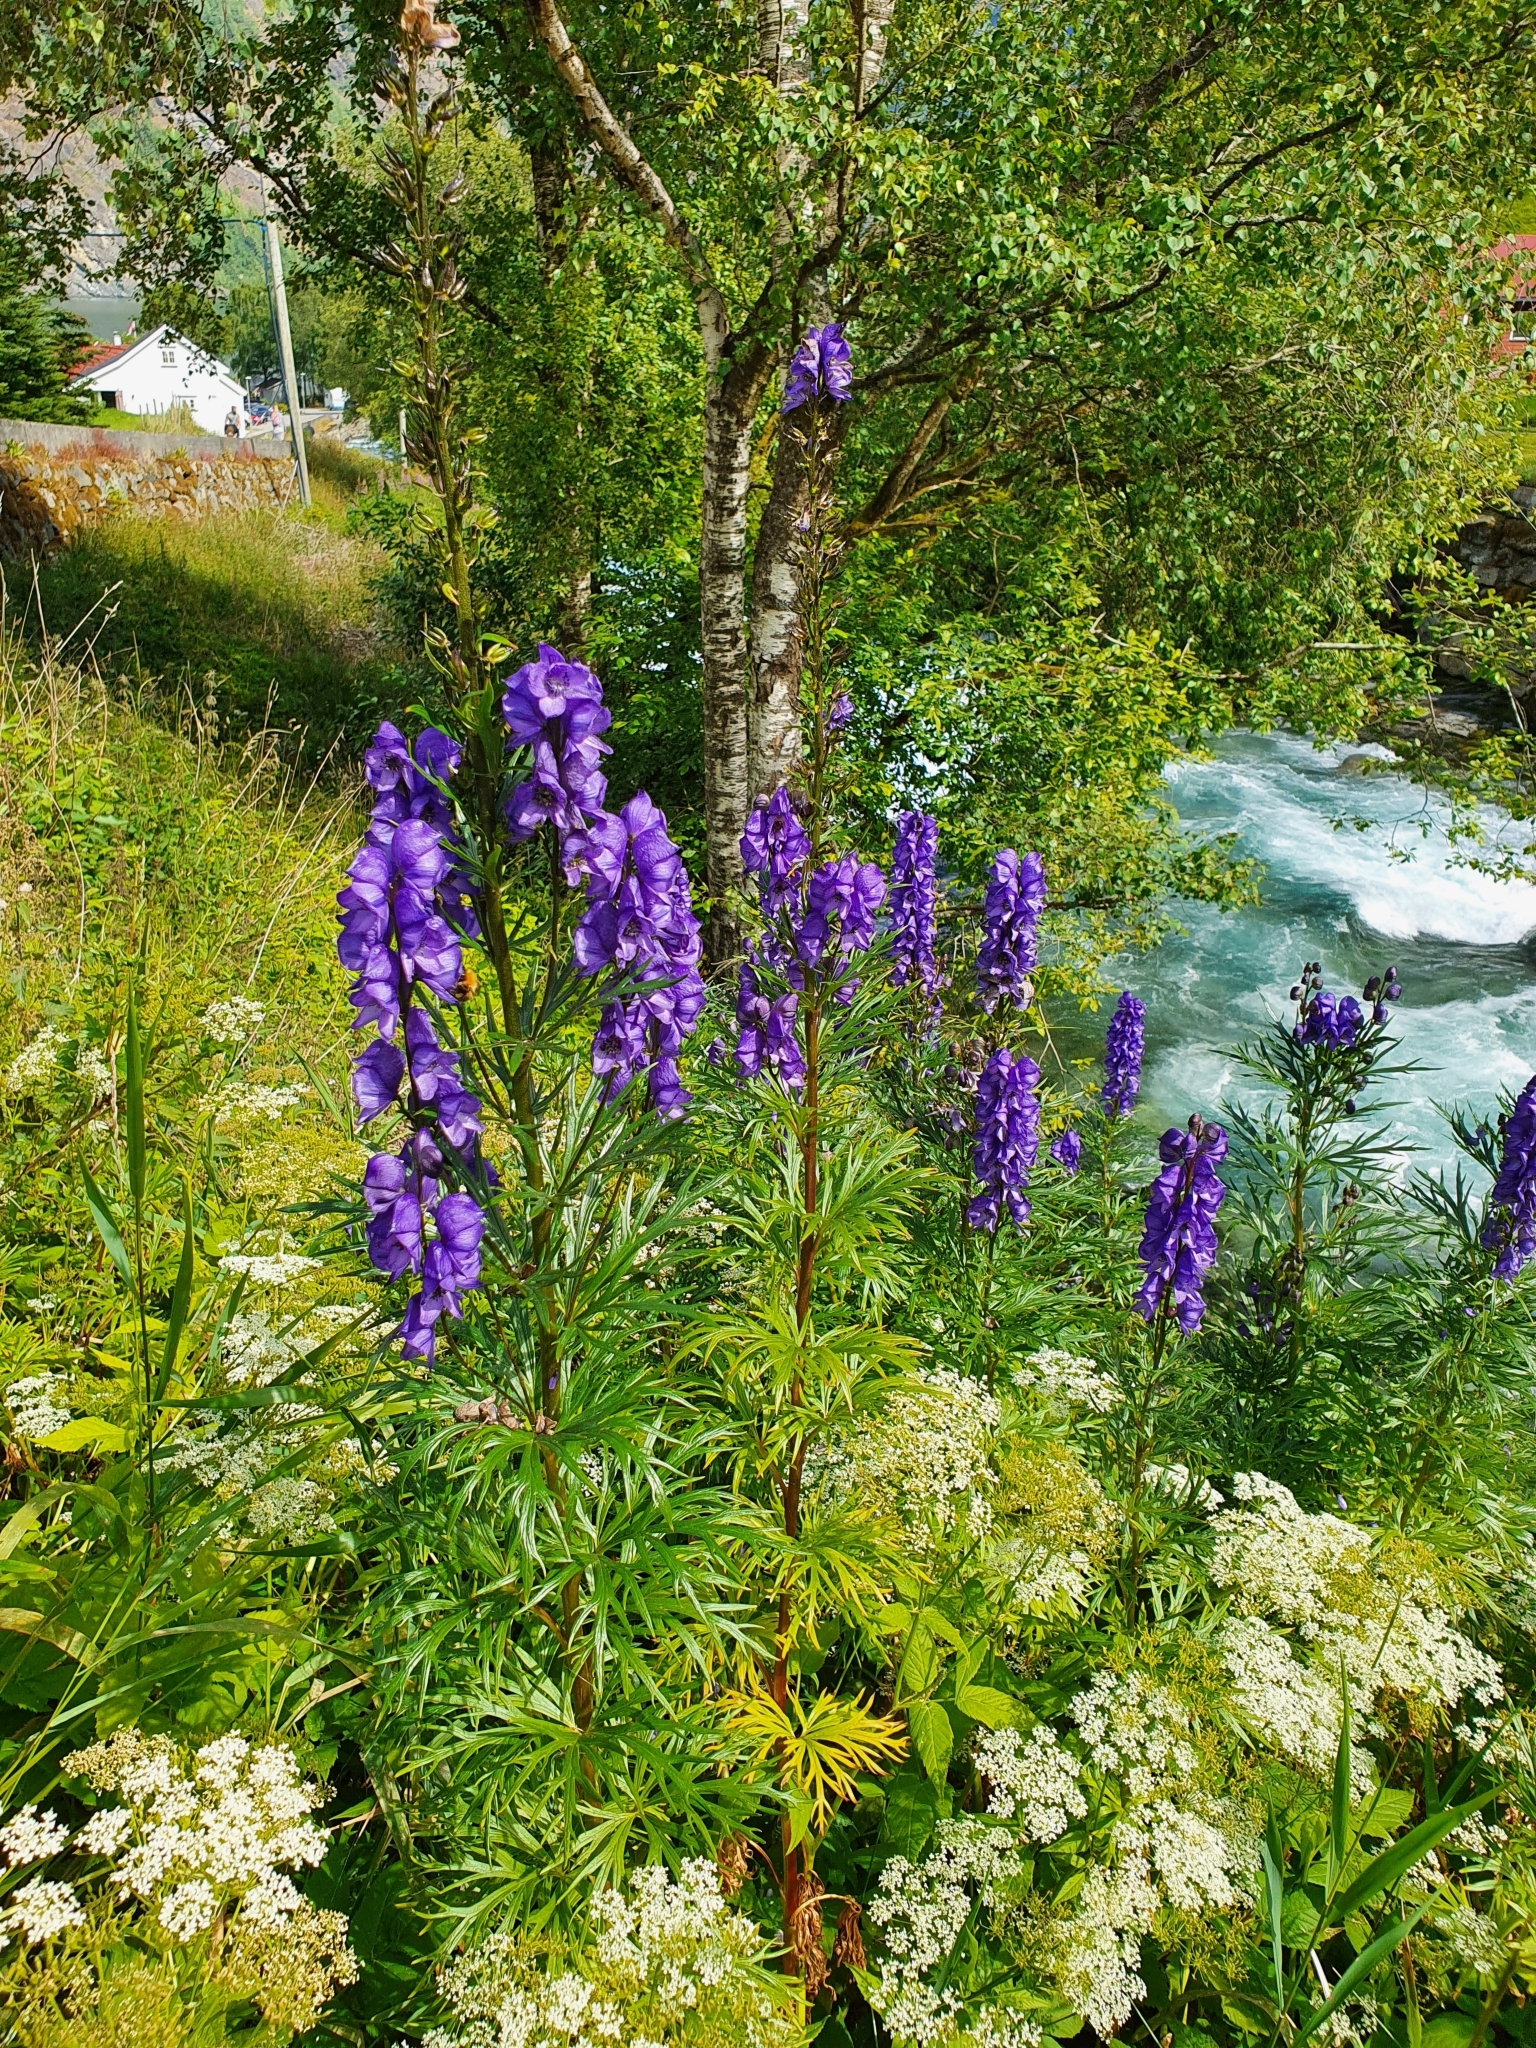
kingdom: Plantae
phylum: Tracheophyta
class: Magnoliopsida
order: Ranunculales
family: Ranunculaceae
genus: Aconitum
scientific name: Aconitum napellus
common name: Garden monkshood
